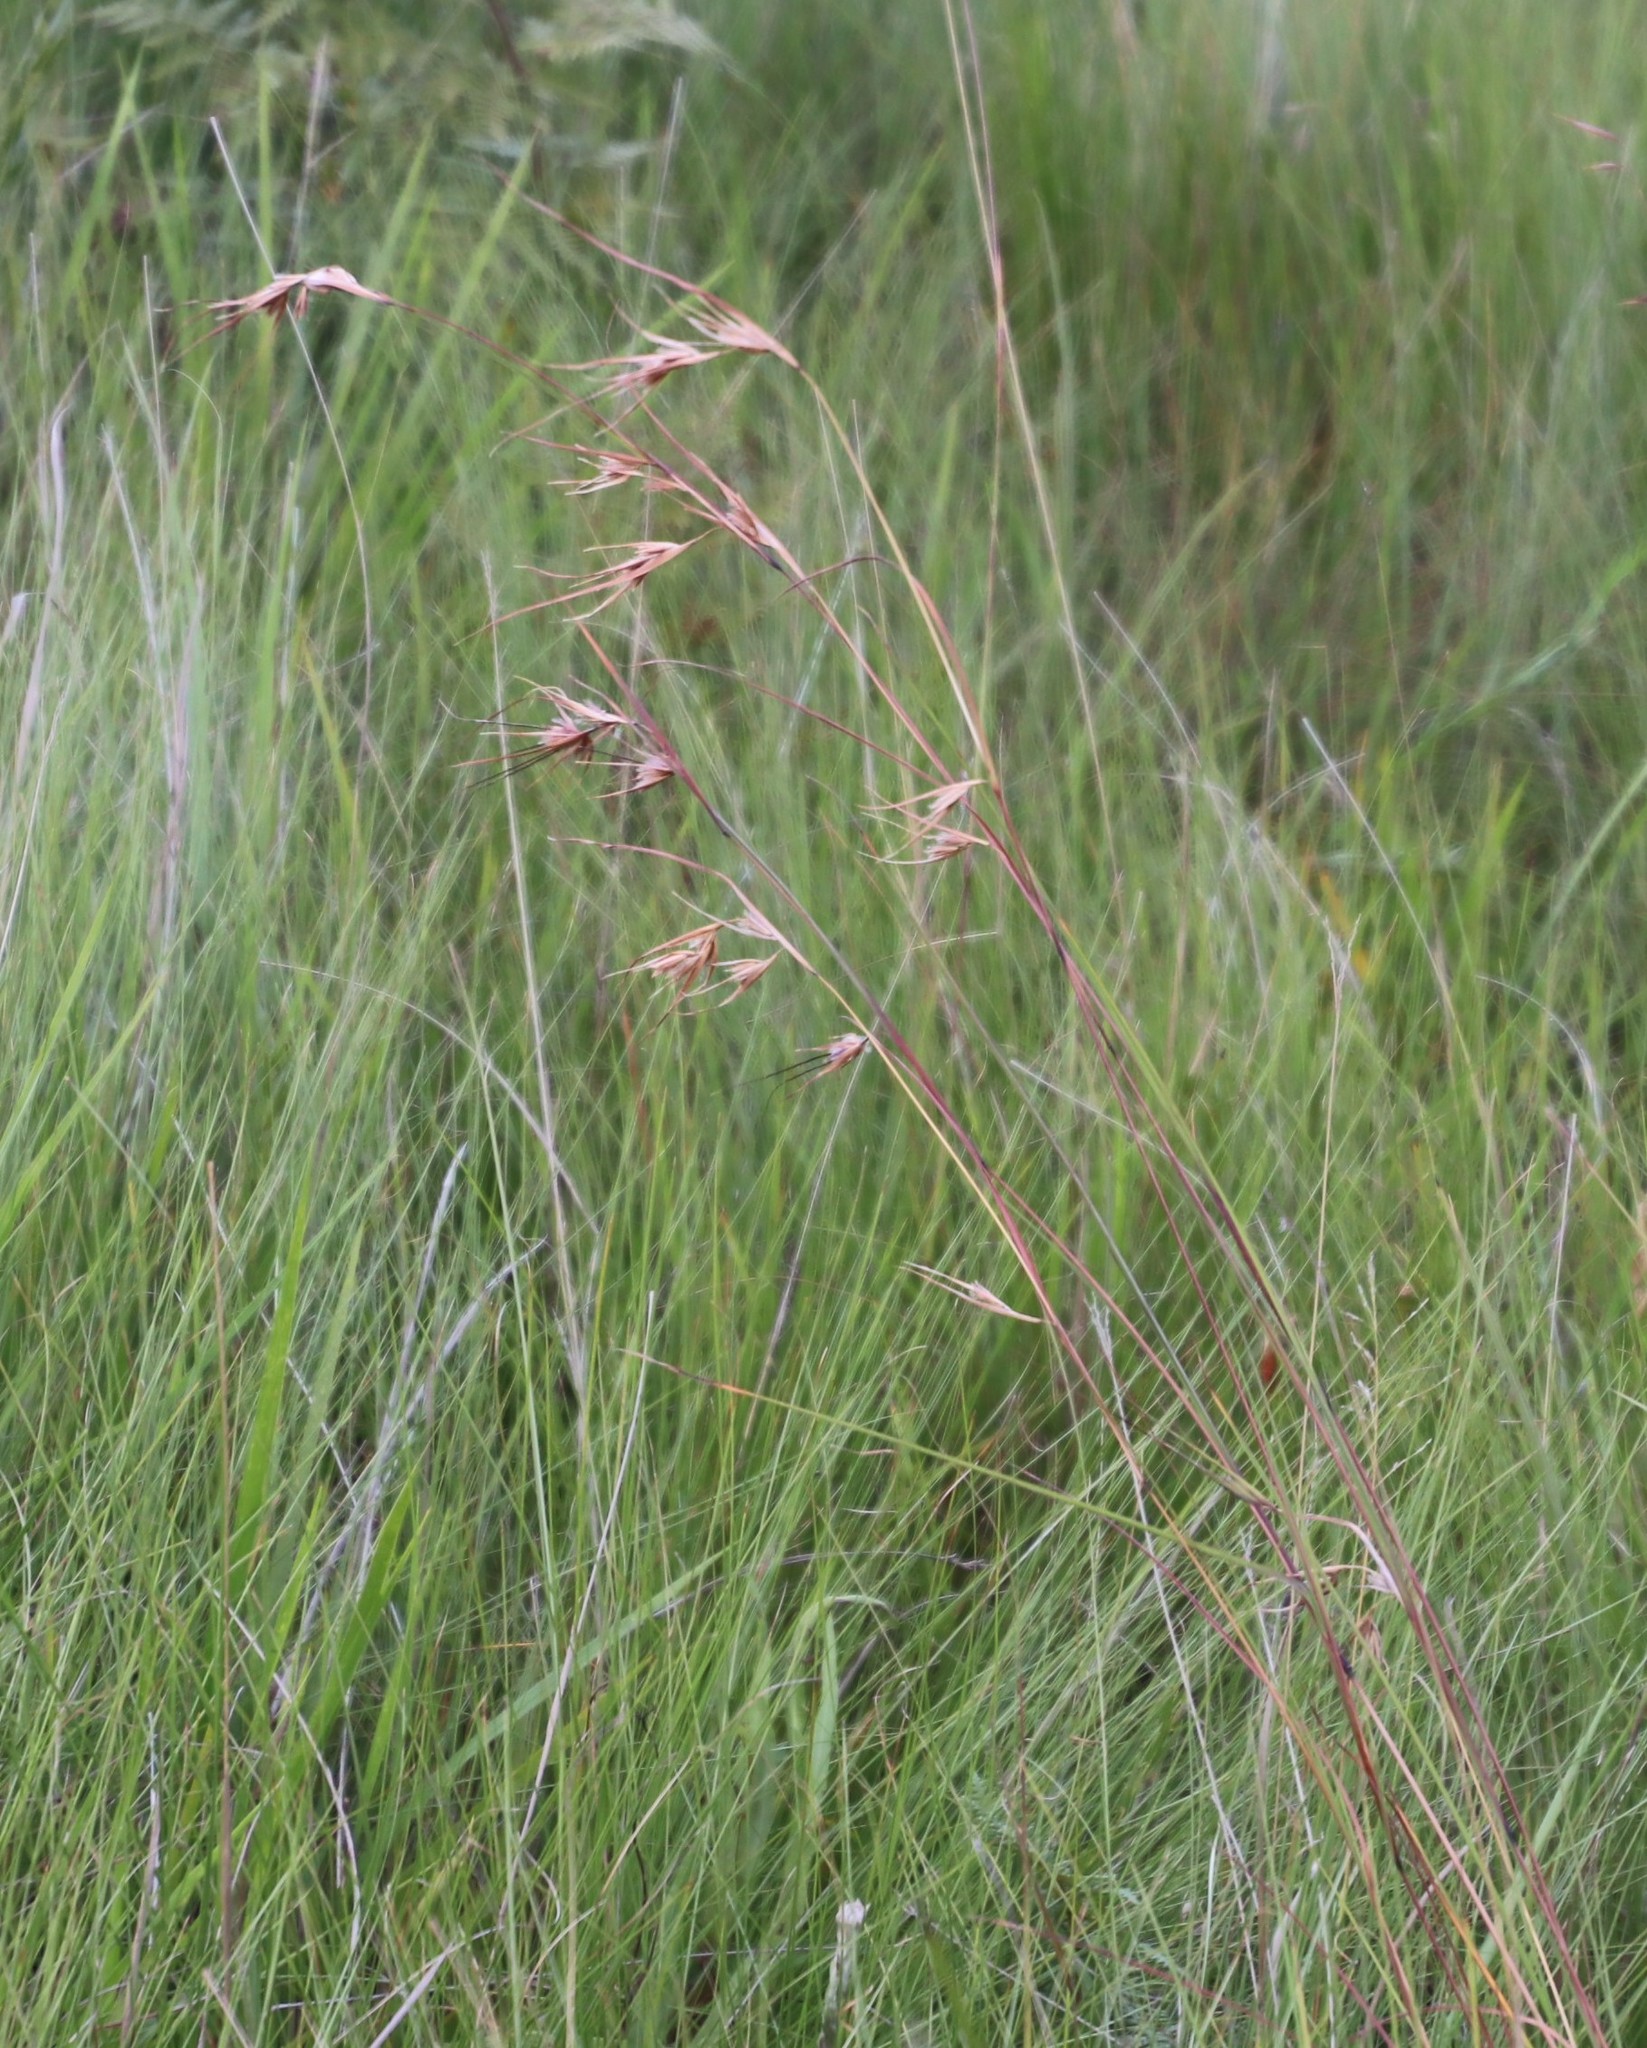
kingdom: Plantae
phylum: Tracheophyta
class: Liliopsida
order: Poales
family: Poaceae
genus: Themeda
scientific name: Themeda triandra
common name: Kangaroo grass
